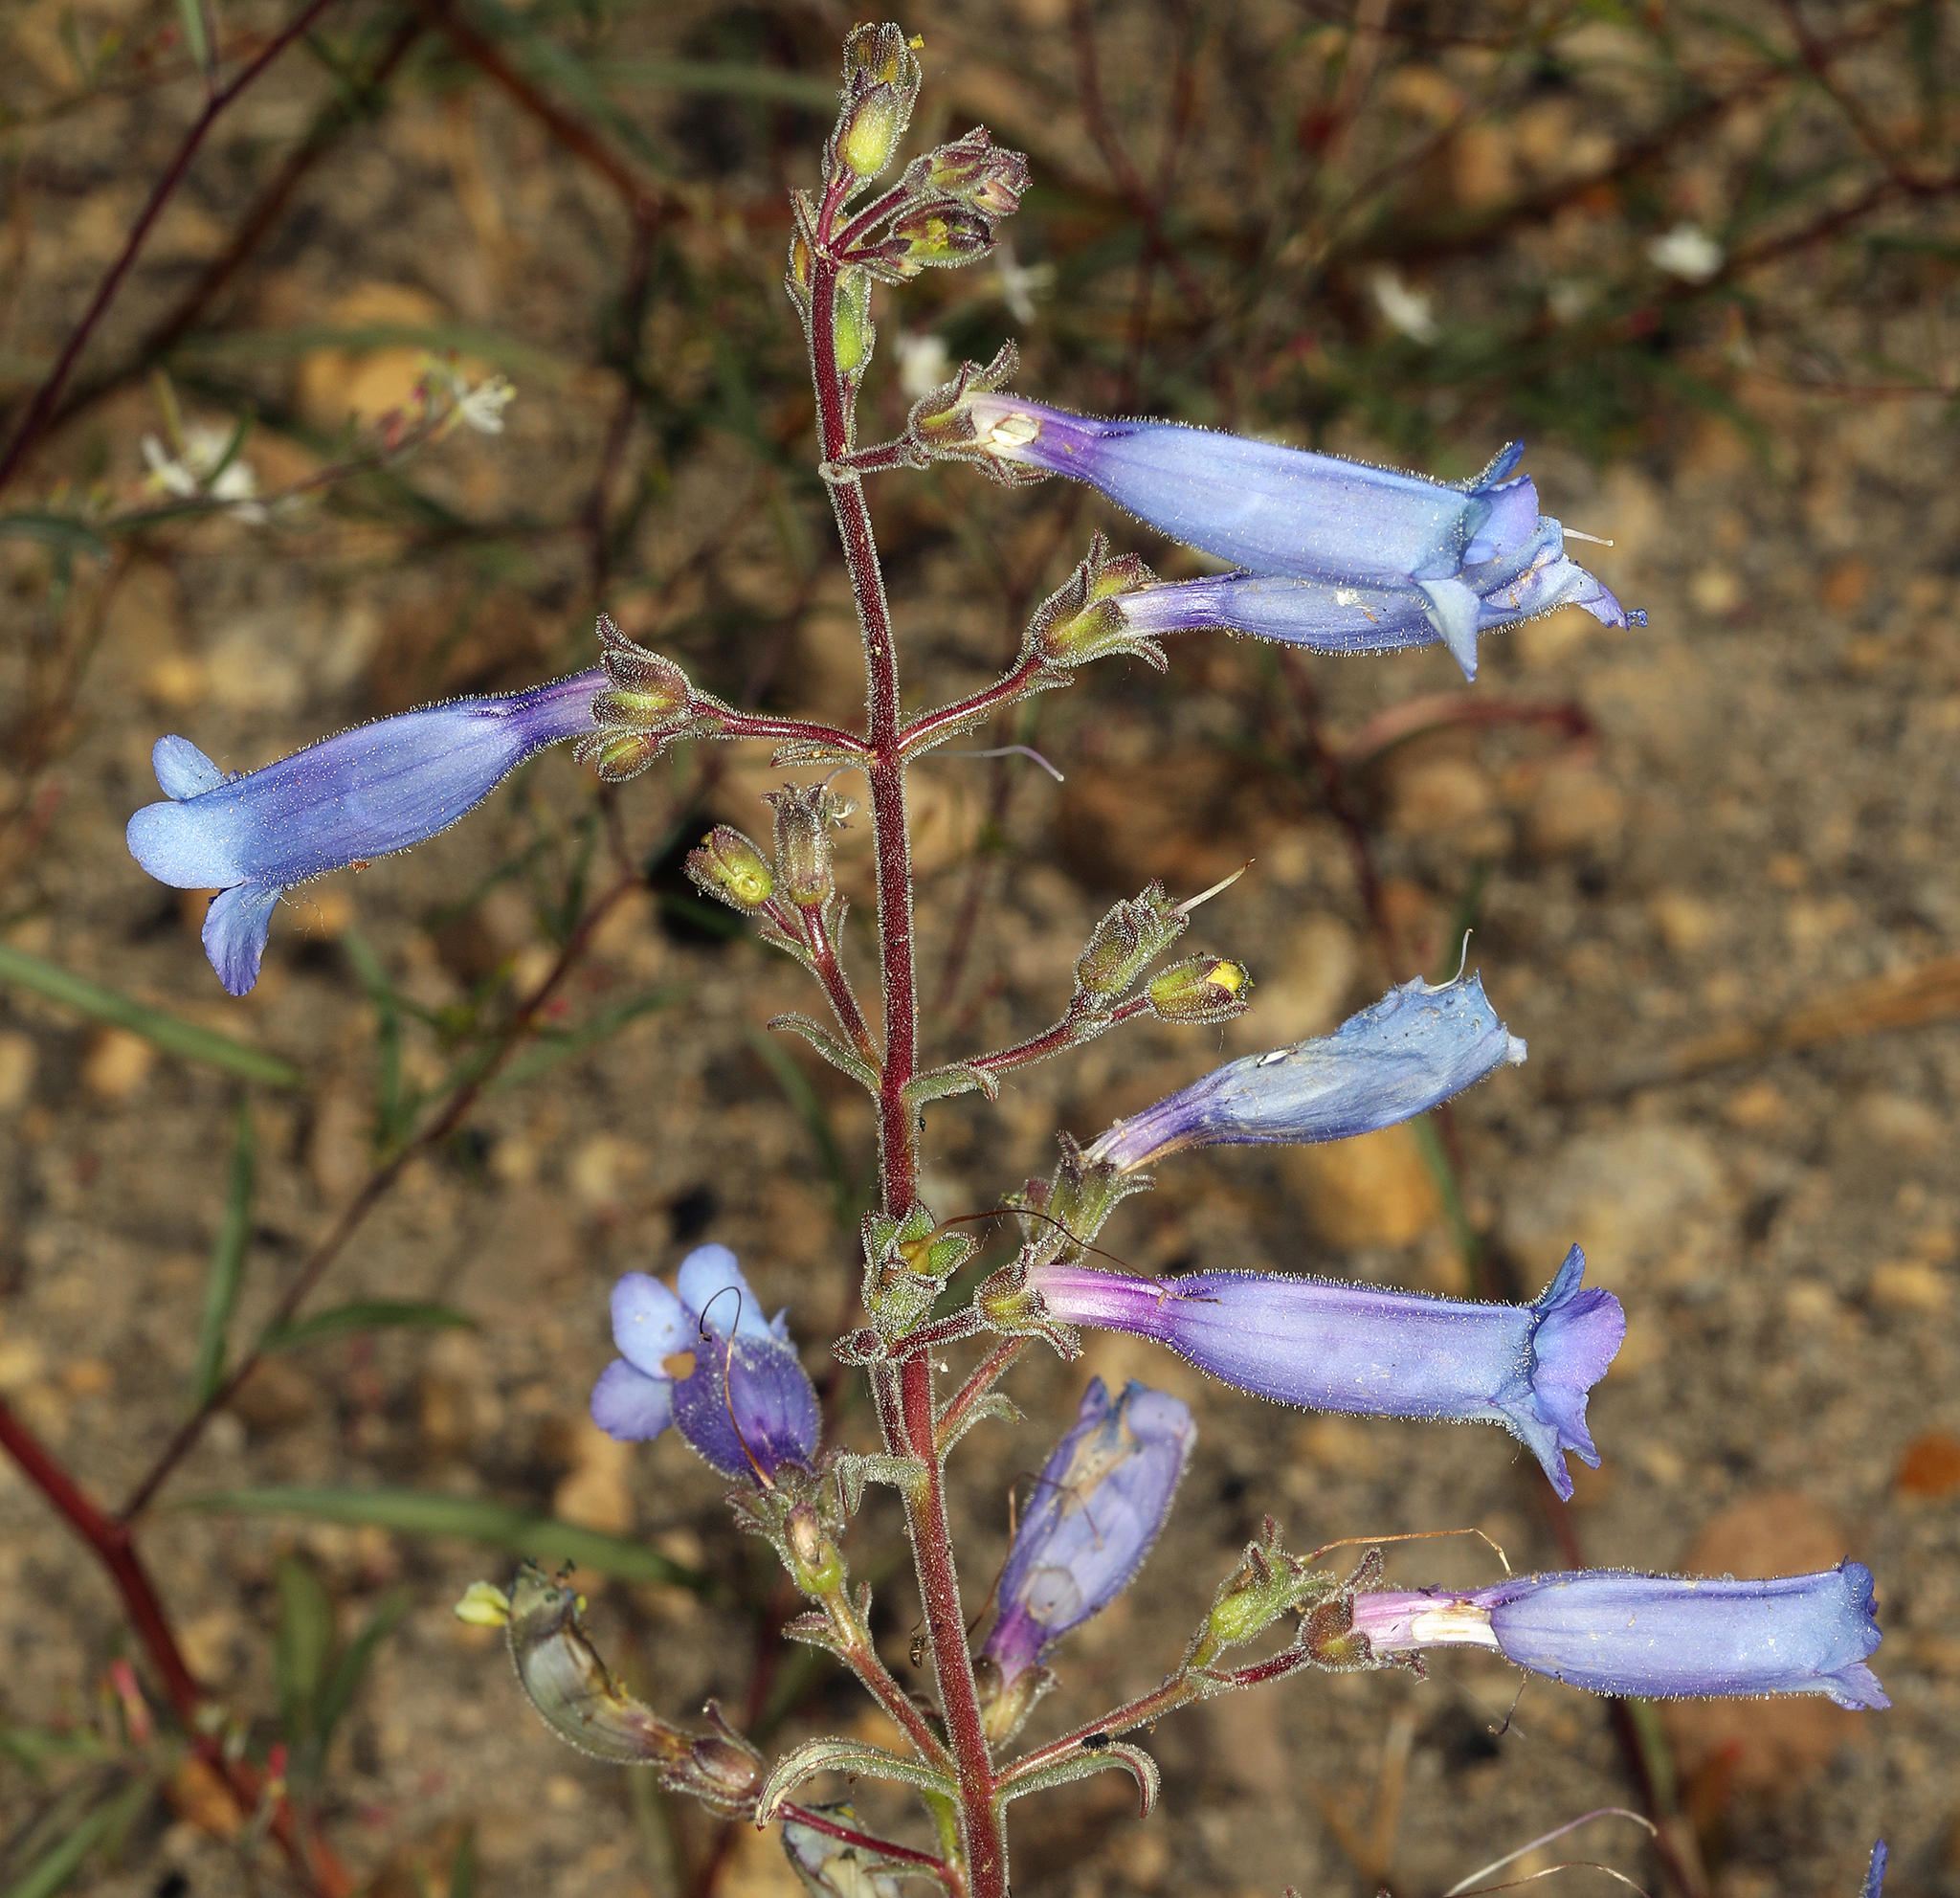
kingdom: Plantae
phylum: Tracheophyta
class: Magnoliopsida
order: Lamiales
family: Plantaginaceae
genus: Penstemon
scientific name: Penstemon laetus
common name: Gay penstemon
